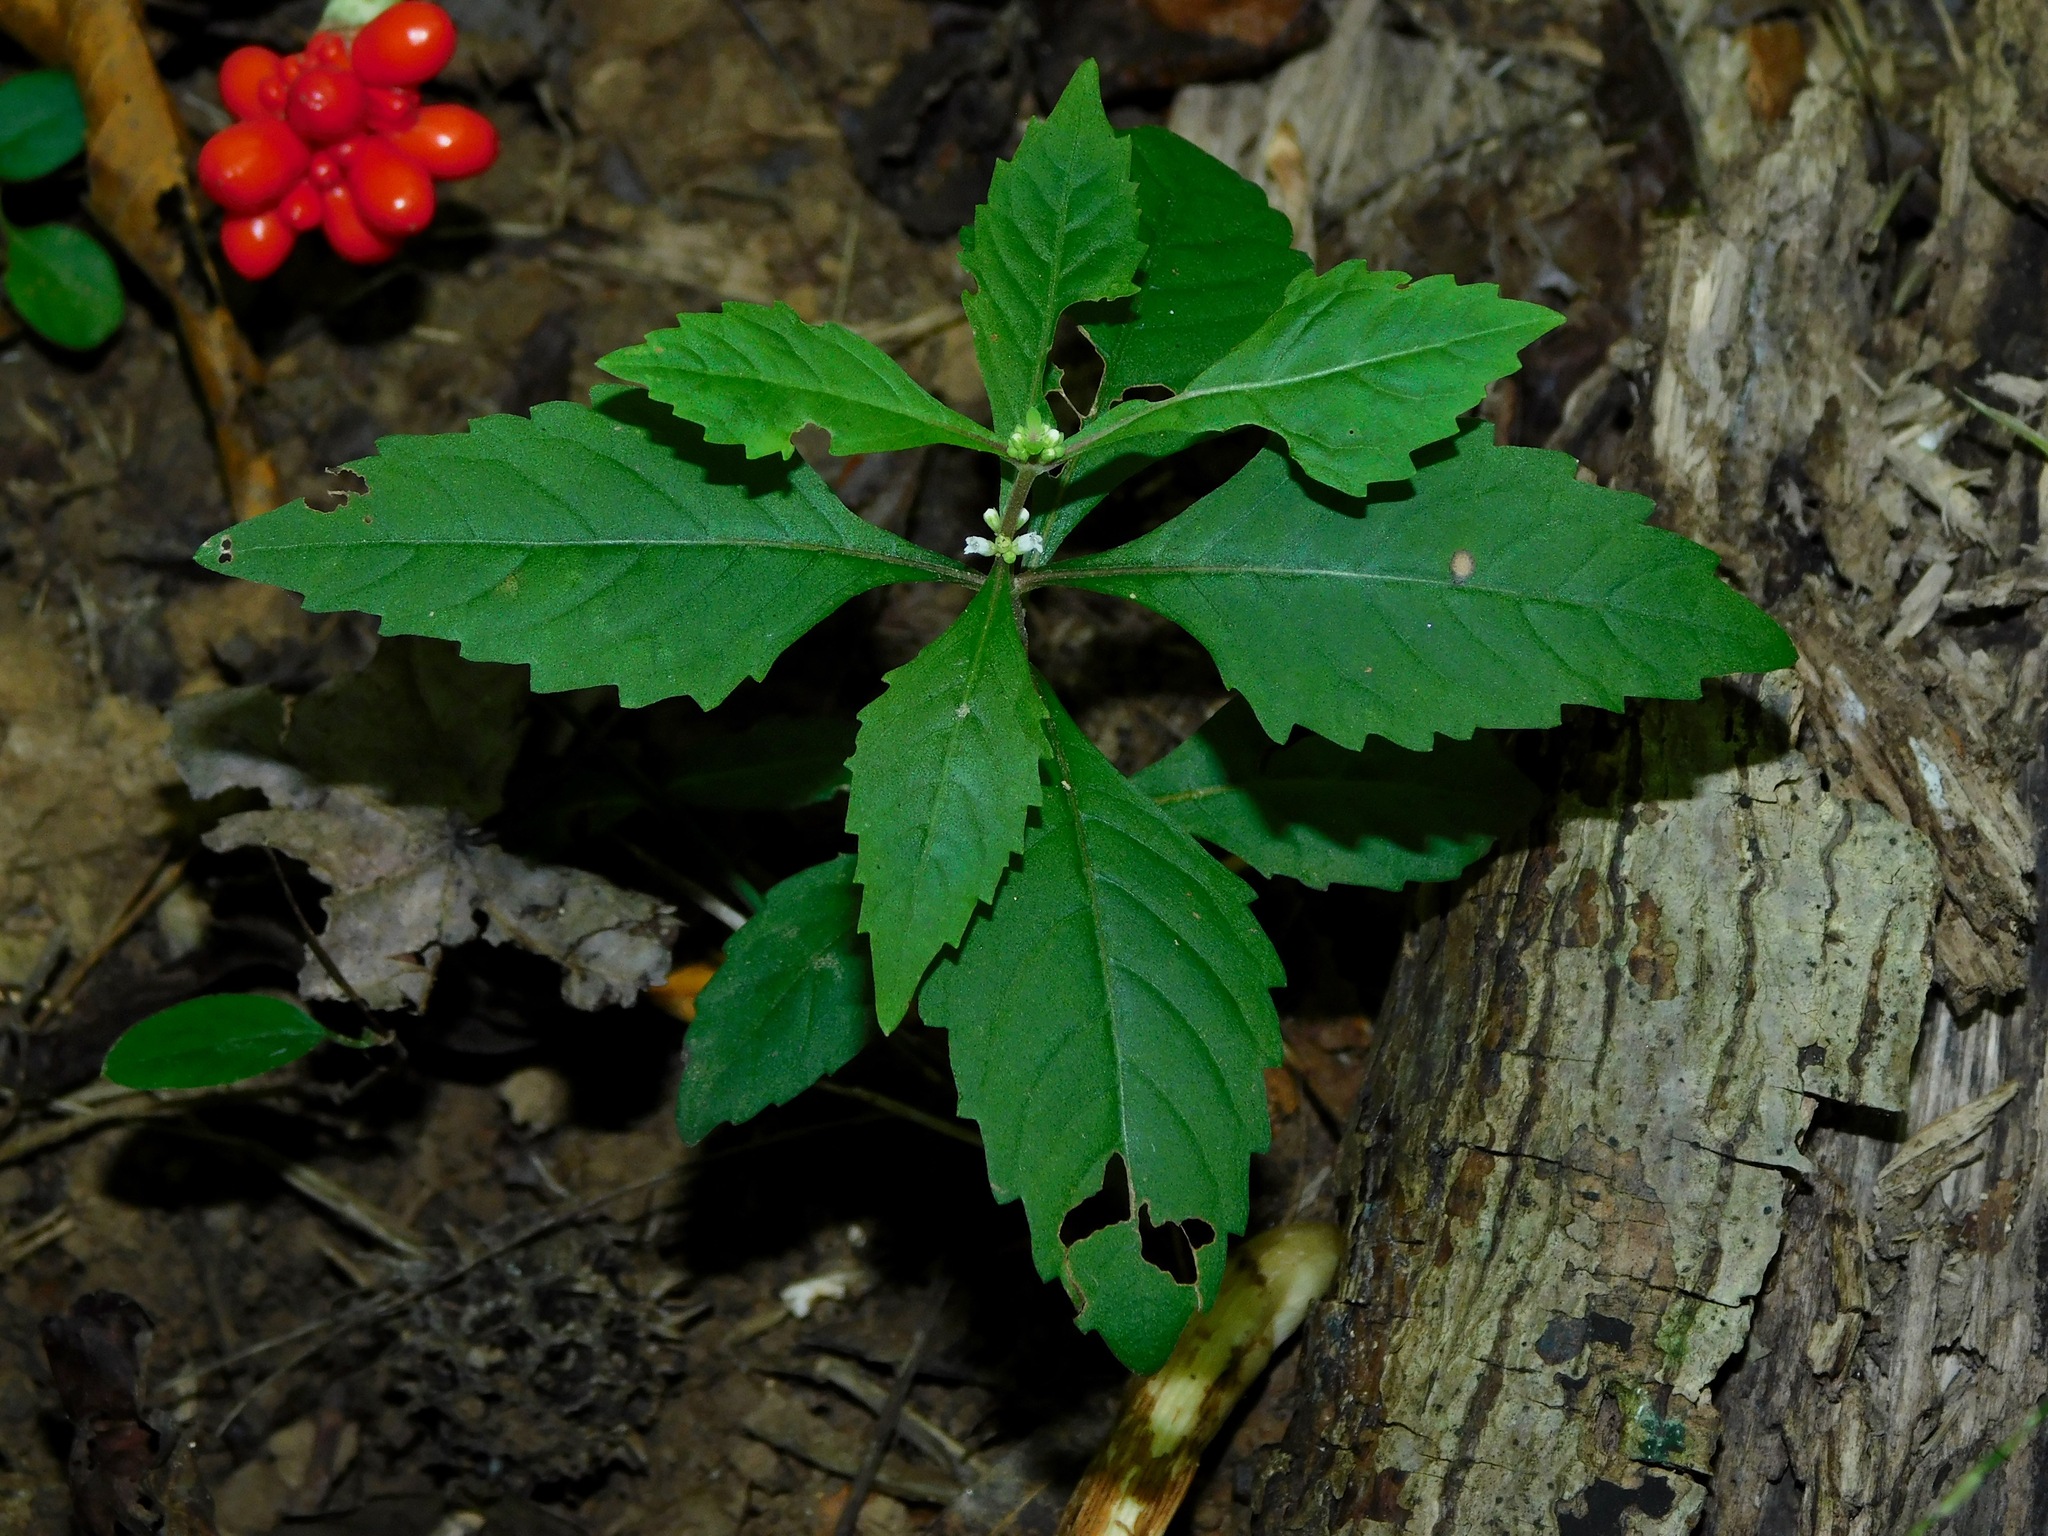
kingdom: Plantae
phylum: Tracheophyta
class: Magnoliopsida
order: Lamiales
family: Lamiaceae
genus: Lycopus
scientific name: Lycopus virginicus
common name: Bugleweed
